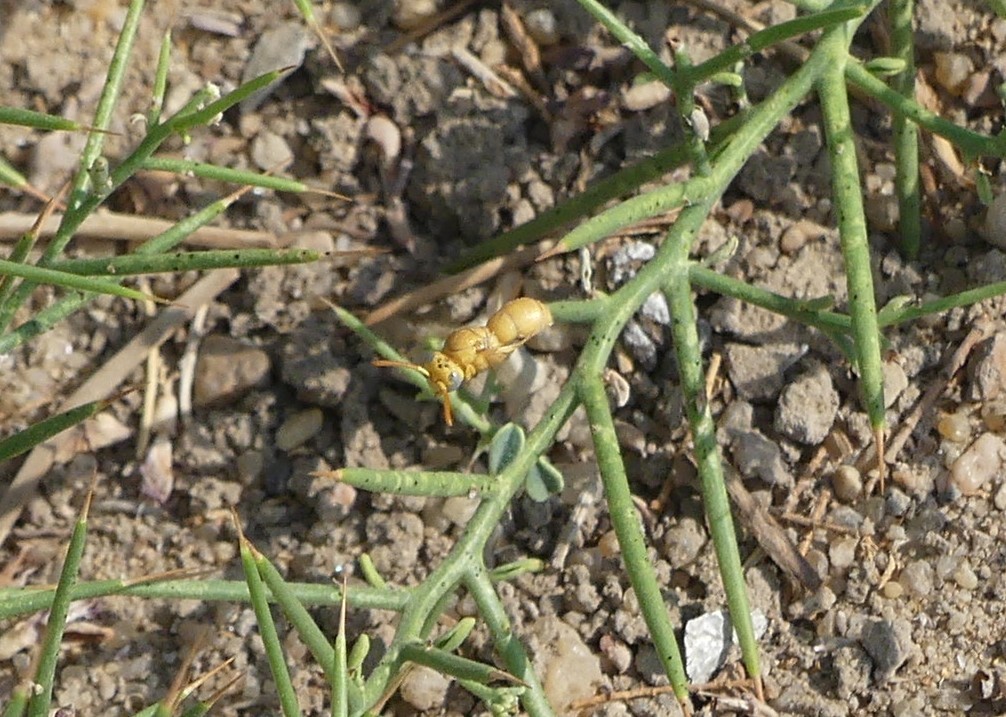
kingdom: Animalia
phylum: Arthropoda
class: Insecta
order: Hymenoptera
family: Eumenidae
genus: Chlorodynerus
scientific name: Chlorodynerus
